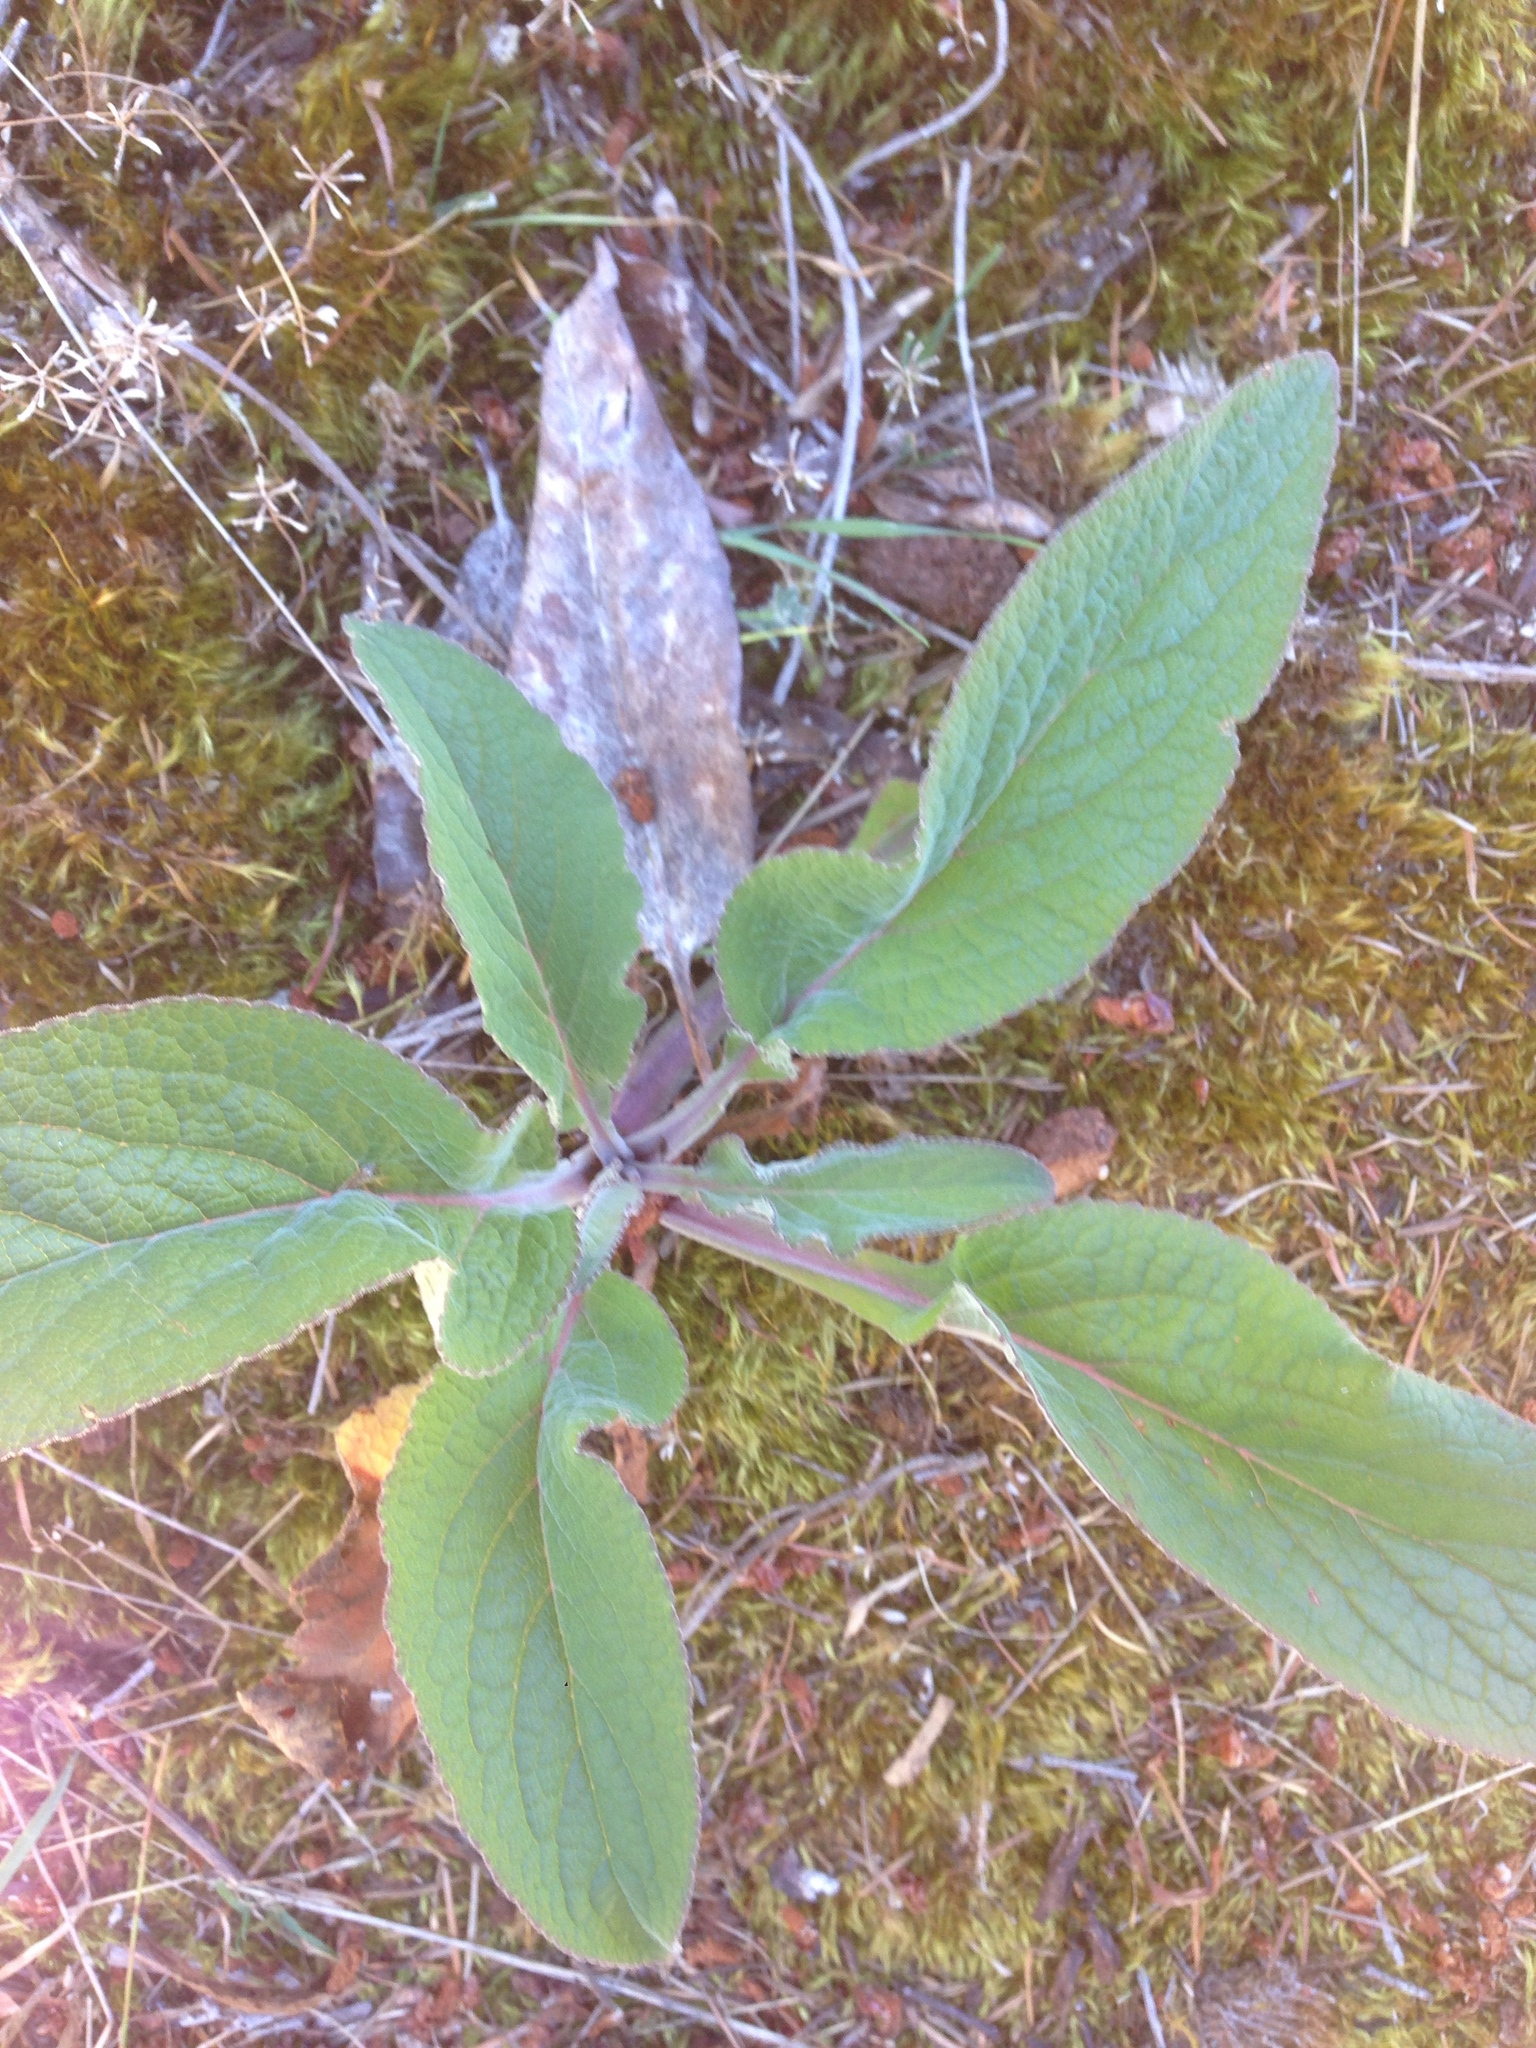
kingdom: Plantae
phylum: Tracheophyta
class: Magnoliopsida
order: Lamiales
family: Plantaginaceae
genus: Digitalis
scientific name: Digitalis purpurea
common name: Foxglove
